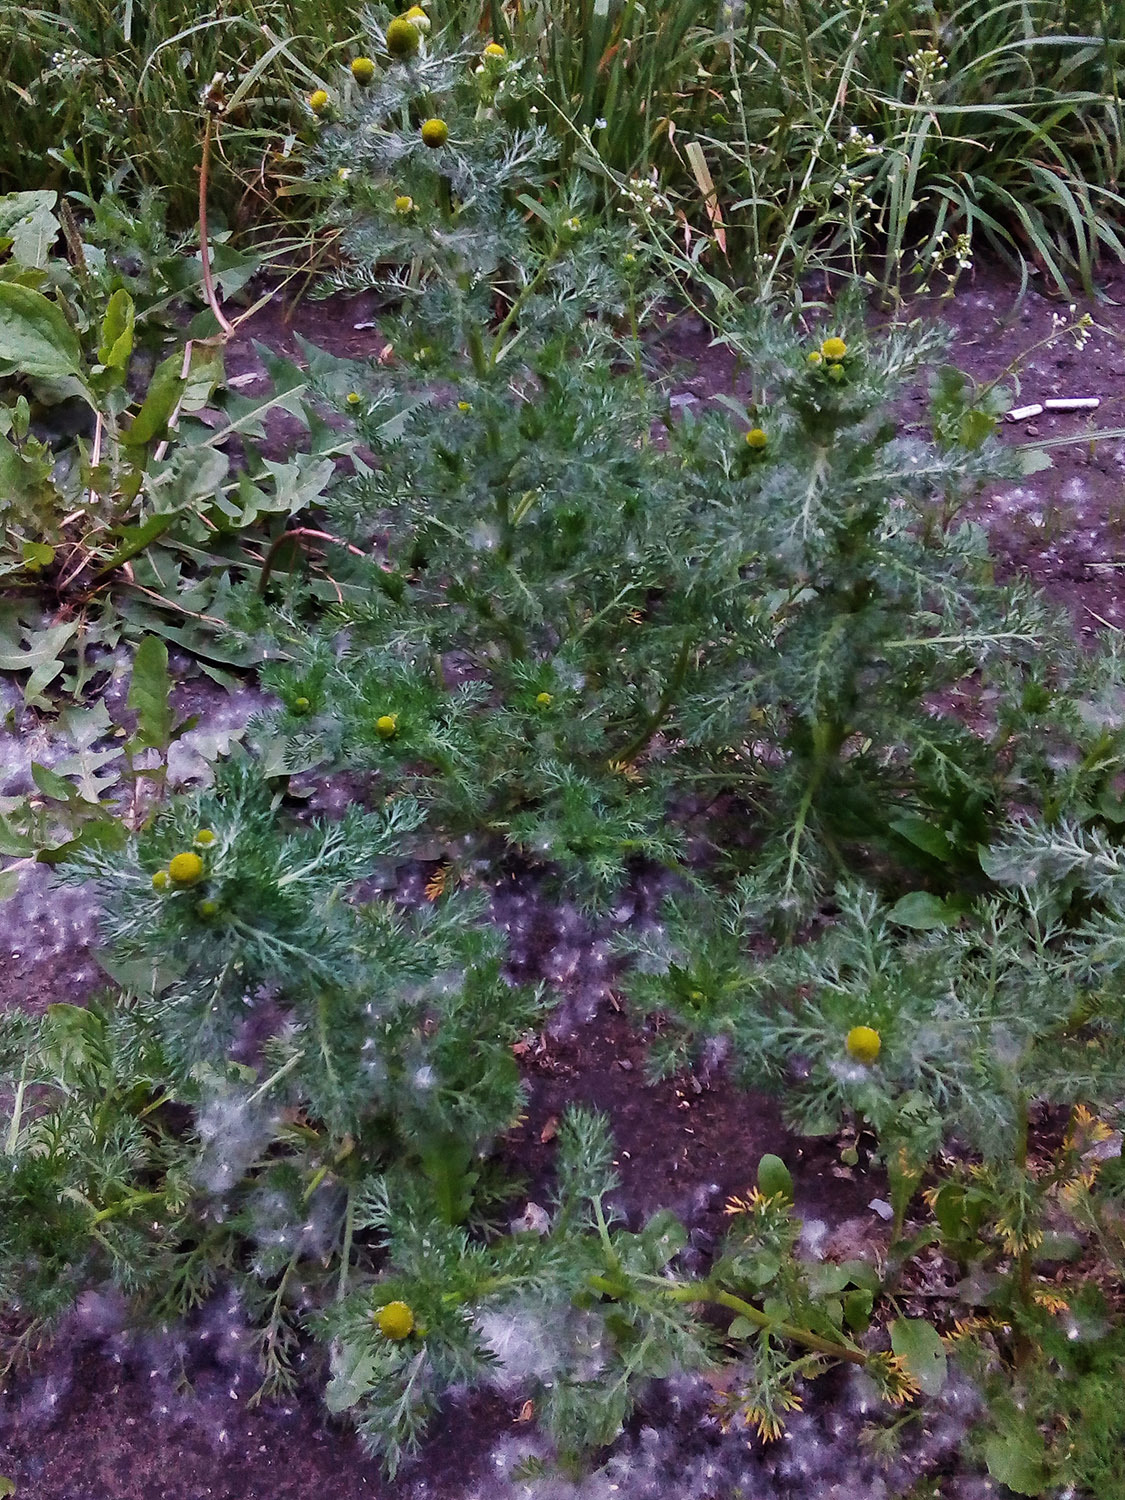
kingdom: Plantae
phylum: Tracheophyta
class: Magnoliopsida
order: Asterales
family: Asteraceae
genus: Matricaria
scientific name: Matricaria discoidea
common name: Disc mayweed
